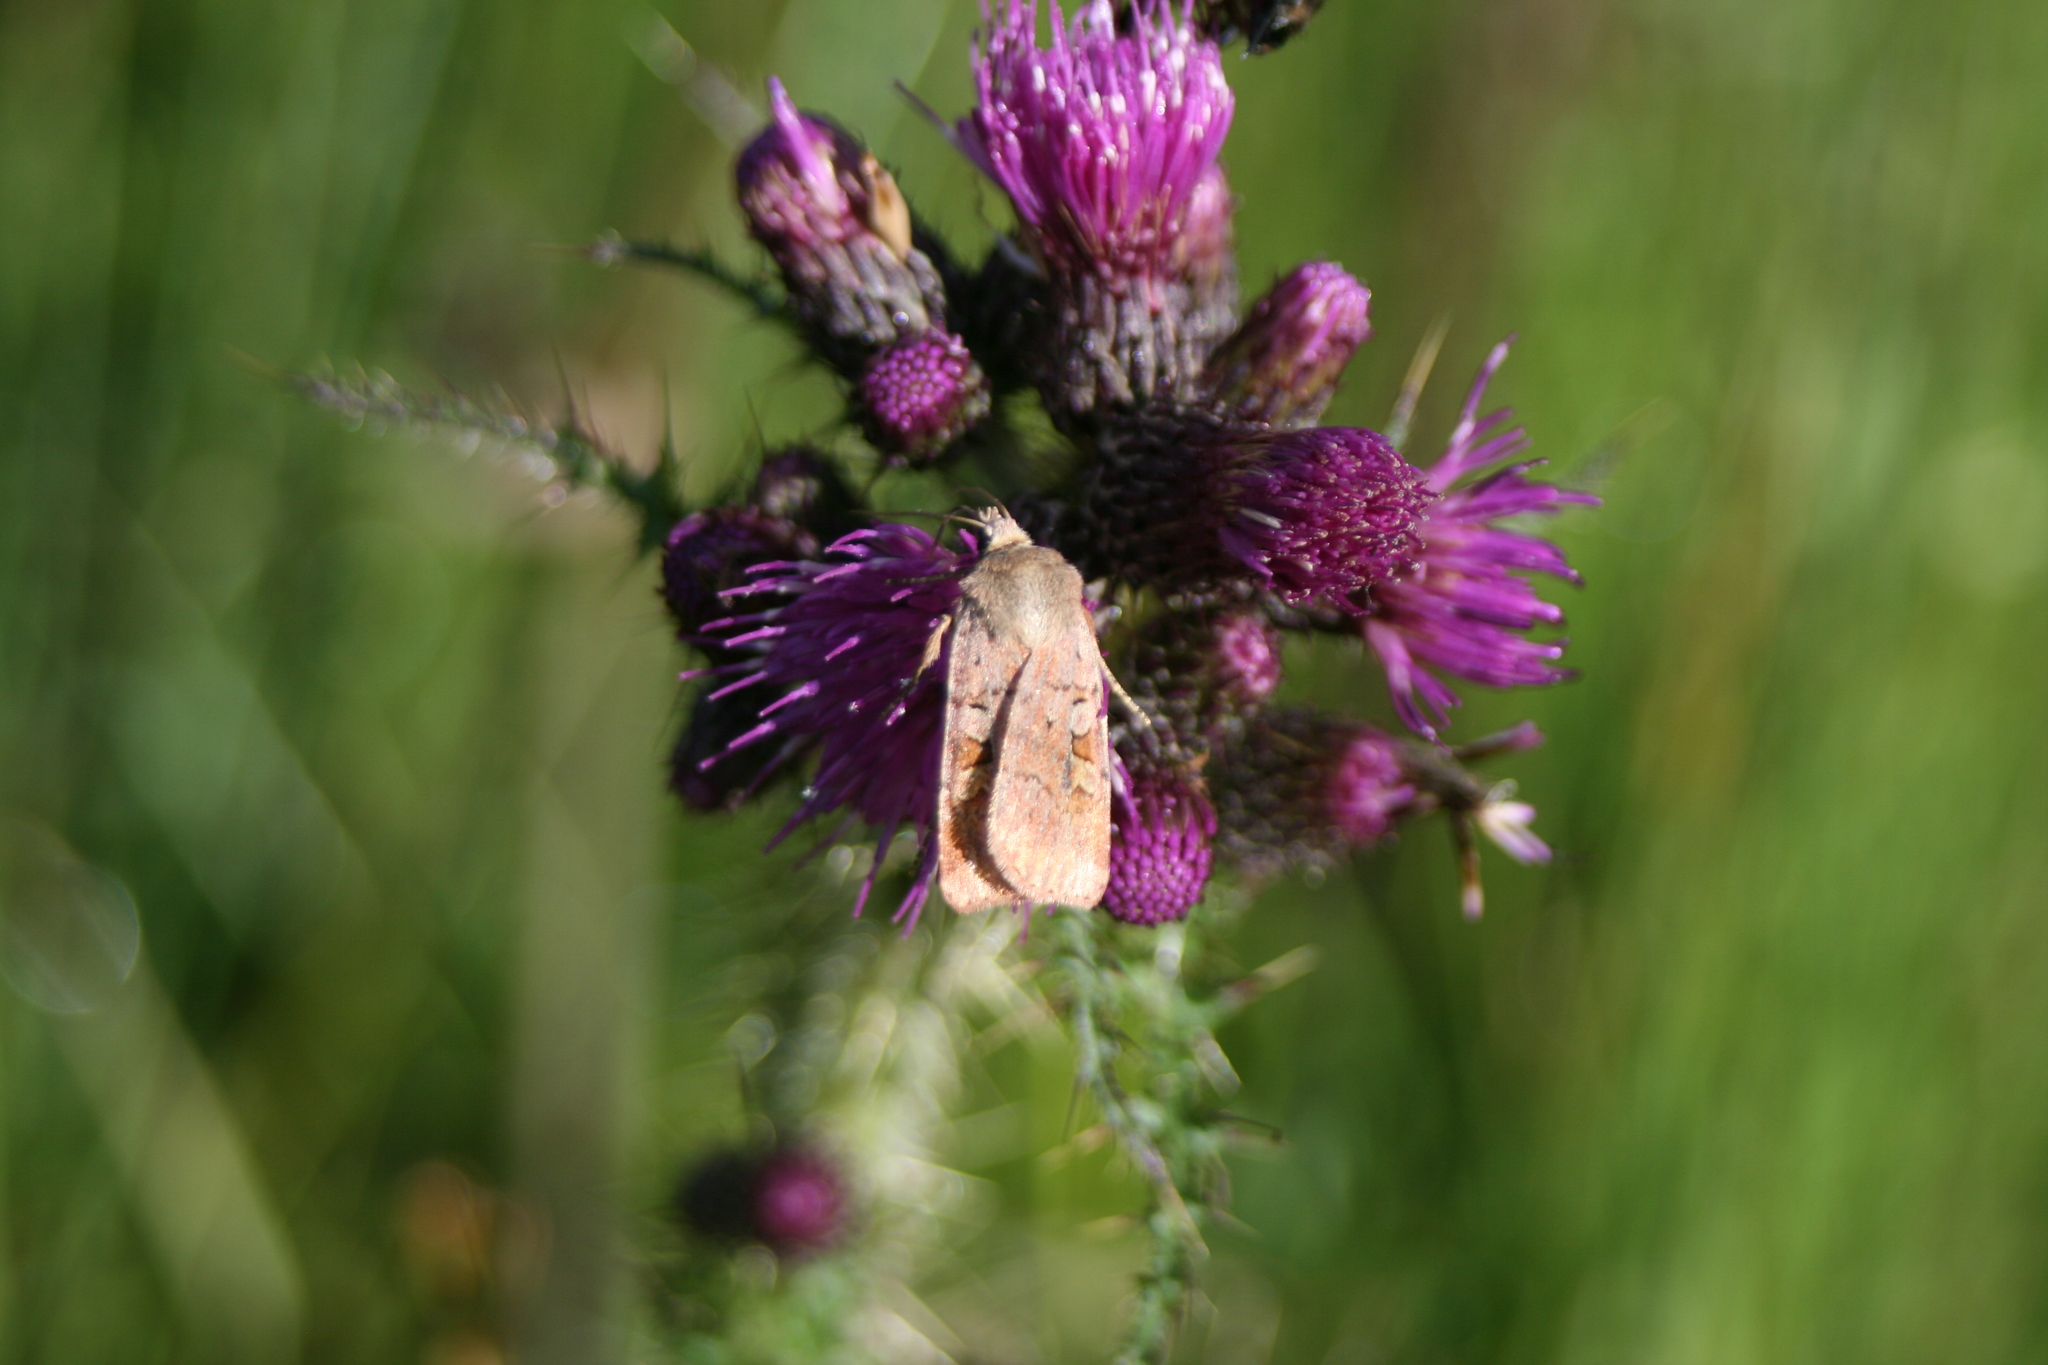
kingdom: Animalia
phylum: Arthropoda
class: Insecta
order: Lepidoptera
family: Noctuidae
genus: Diarsia
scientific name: Diarsia mendica
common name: Ingrailed clay
